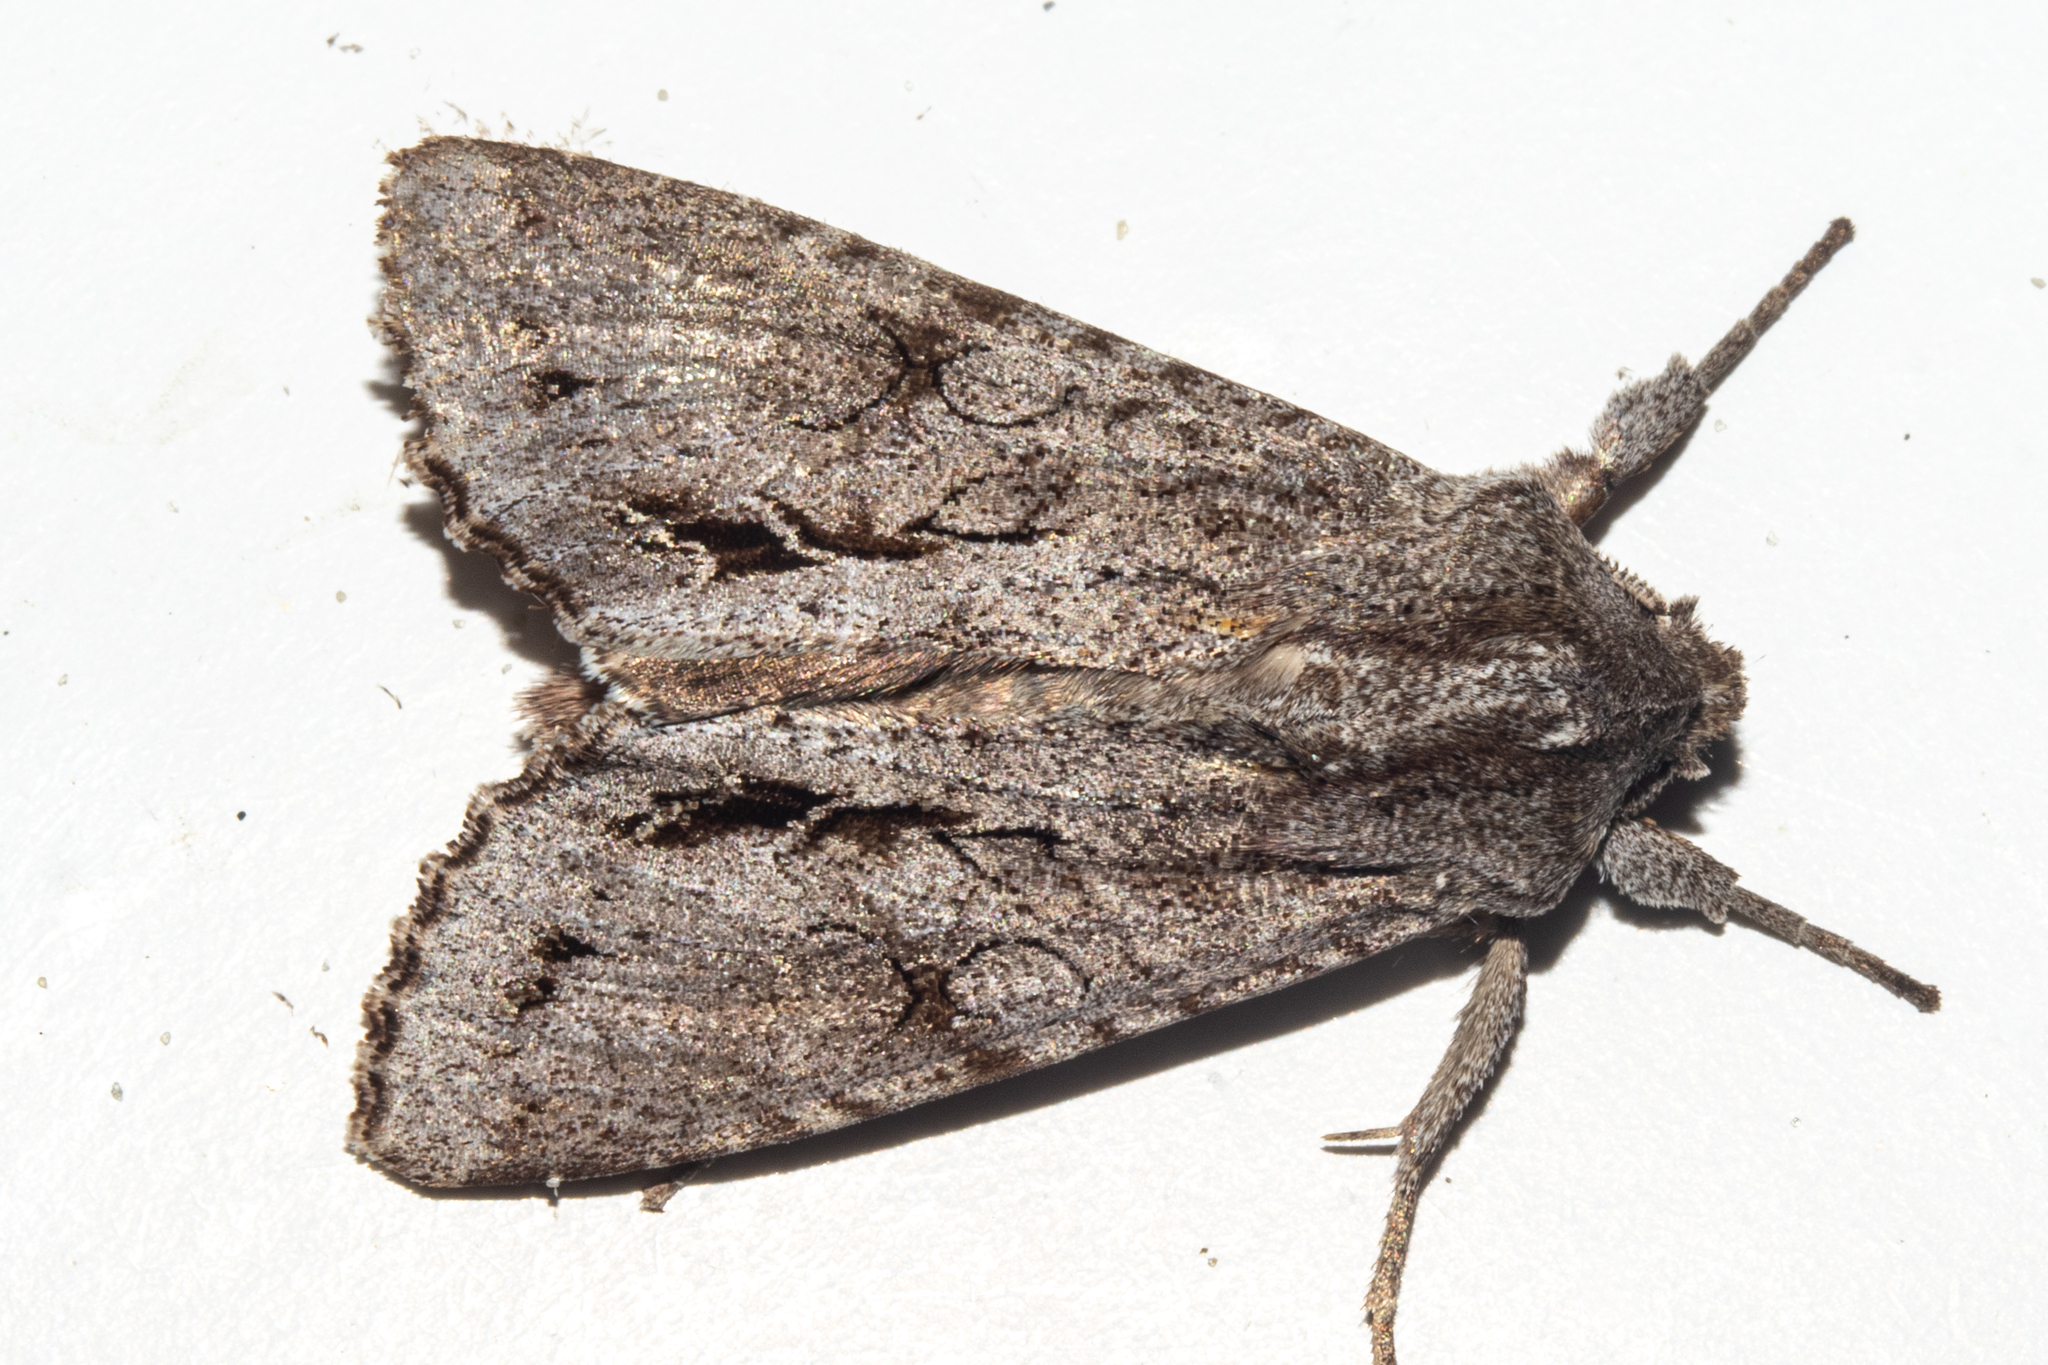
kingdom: Animalia
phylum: Arthropoda
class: Insecta
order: Lepidoptera
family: Noctuidae
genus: Ichneutica
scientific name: Ichneutica
